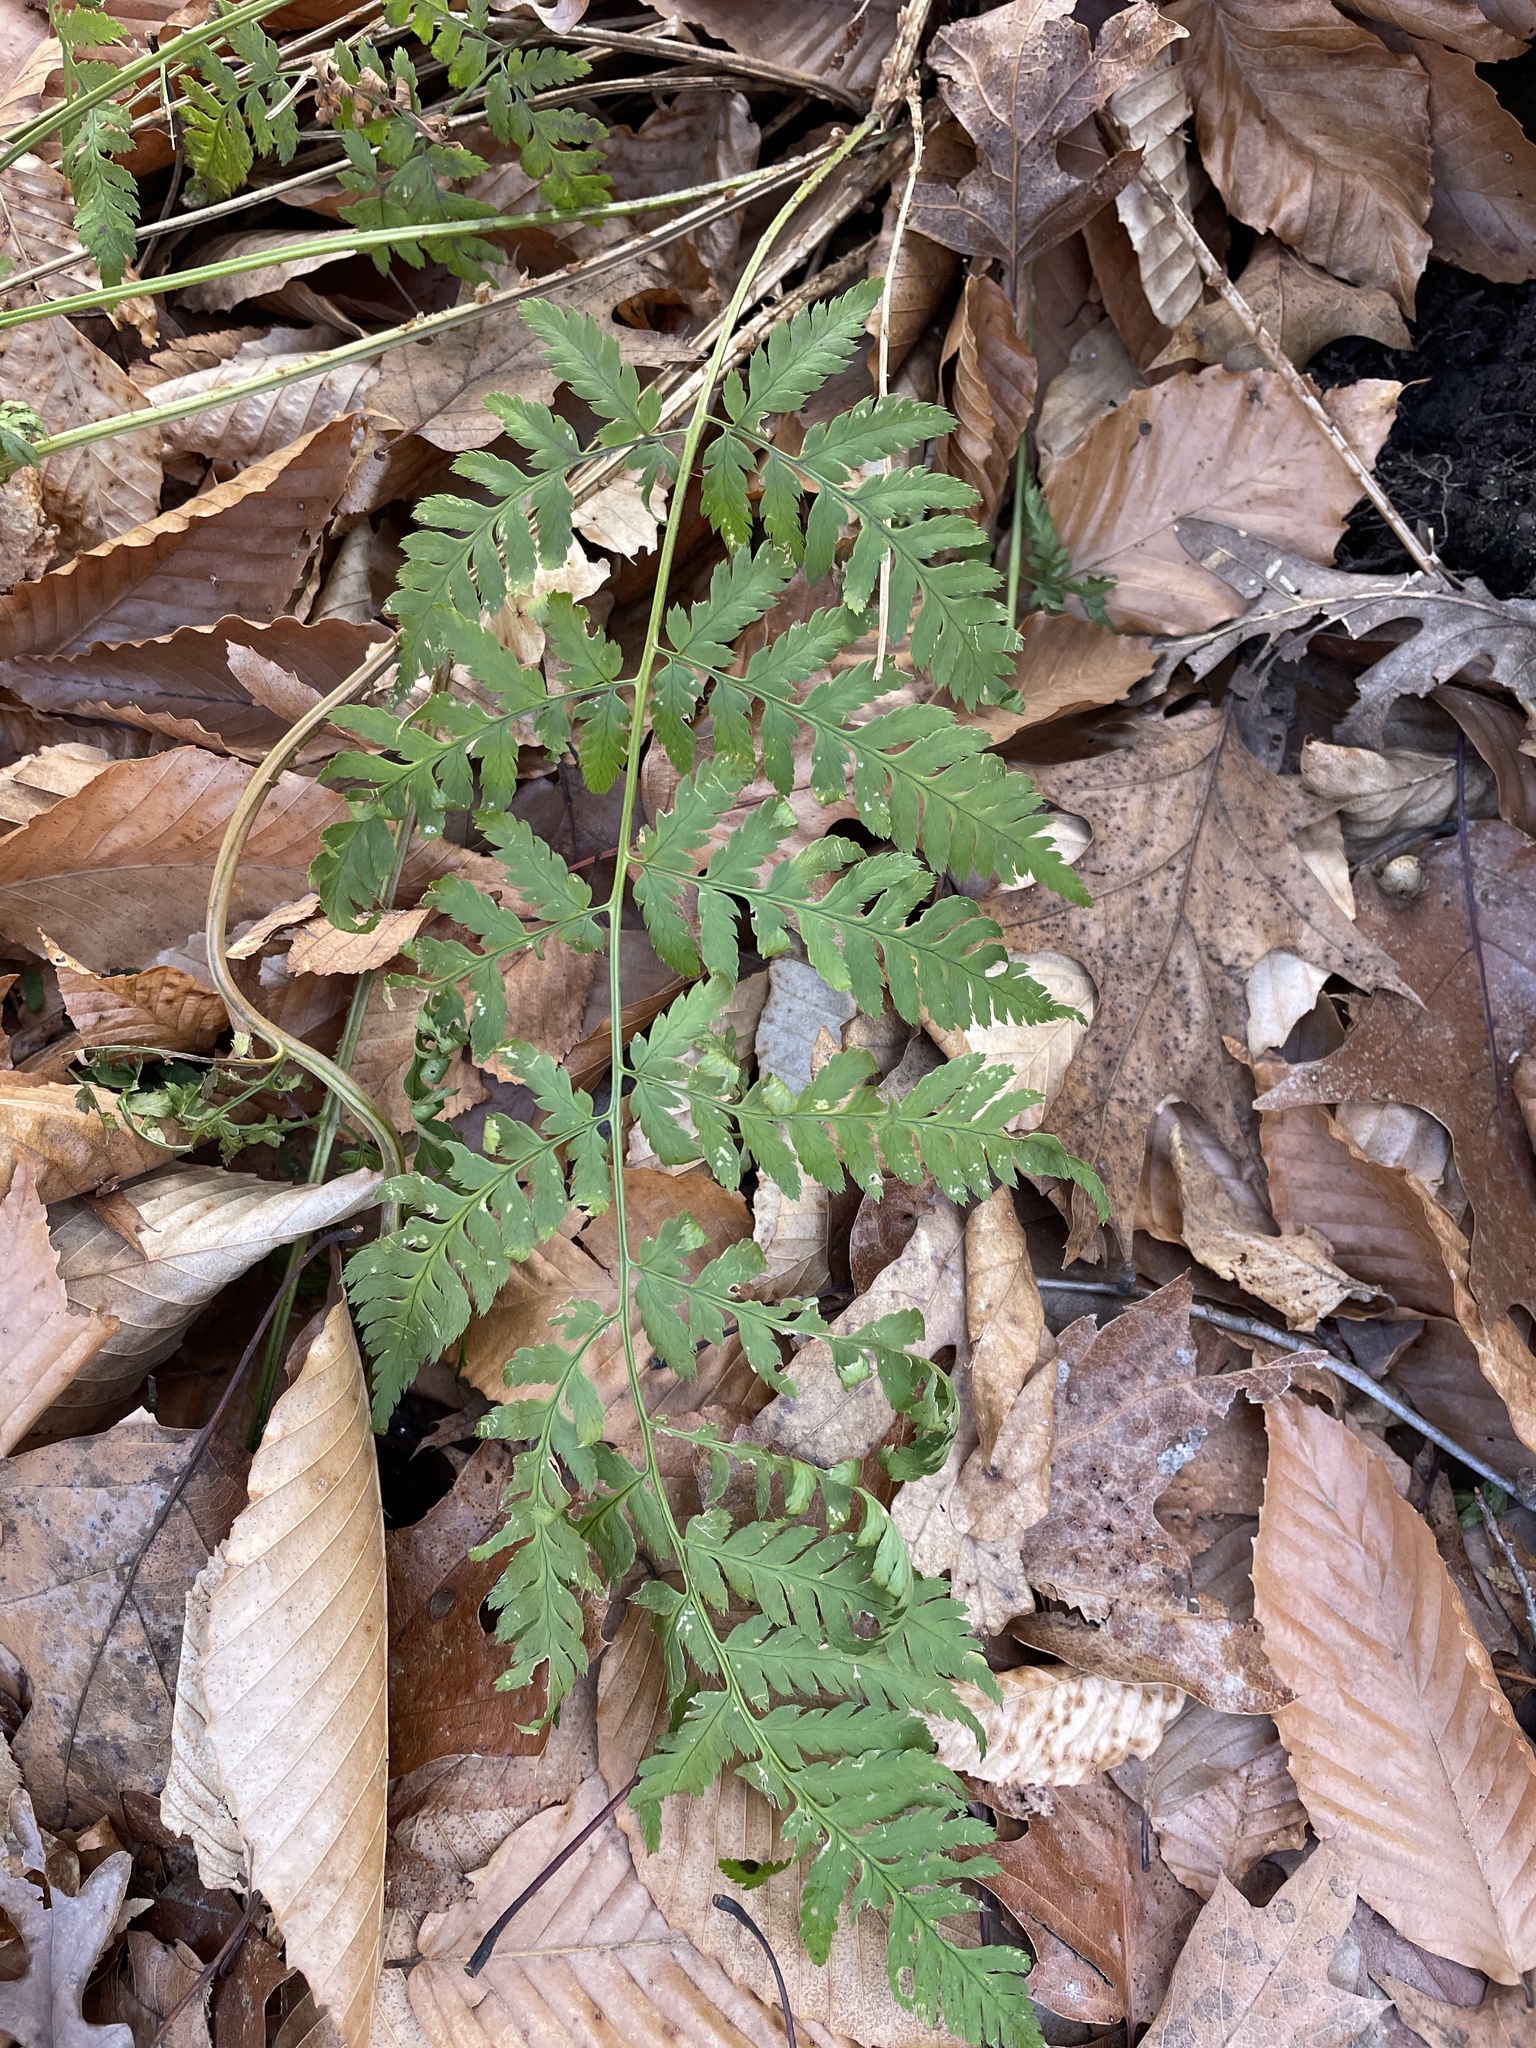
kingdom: Plantae
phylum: Tracheophyta
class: Polypodiopsida
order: Polypodiales
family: Dryopteridaceae
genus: Dryopteris
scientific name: Dryopteris carthusiana
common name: Narrow buckler-fern
